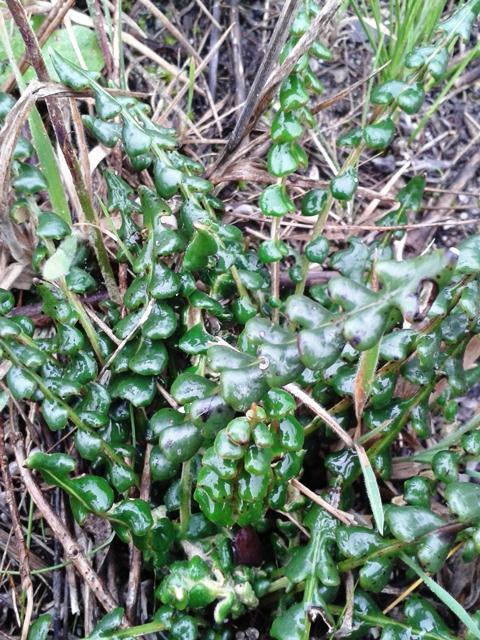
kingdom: Plantae
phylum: Tracheophyta
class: Magnoliopsida
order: Asterales
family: Asteraceae
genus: Gerbera
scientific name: Gerbera linnaei
